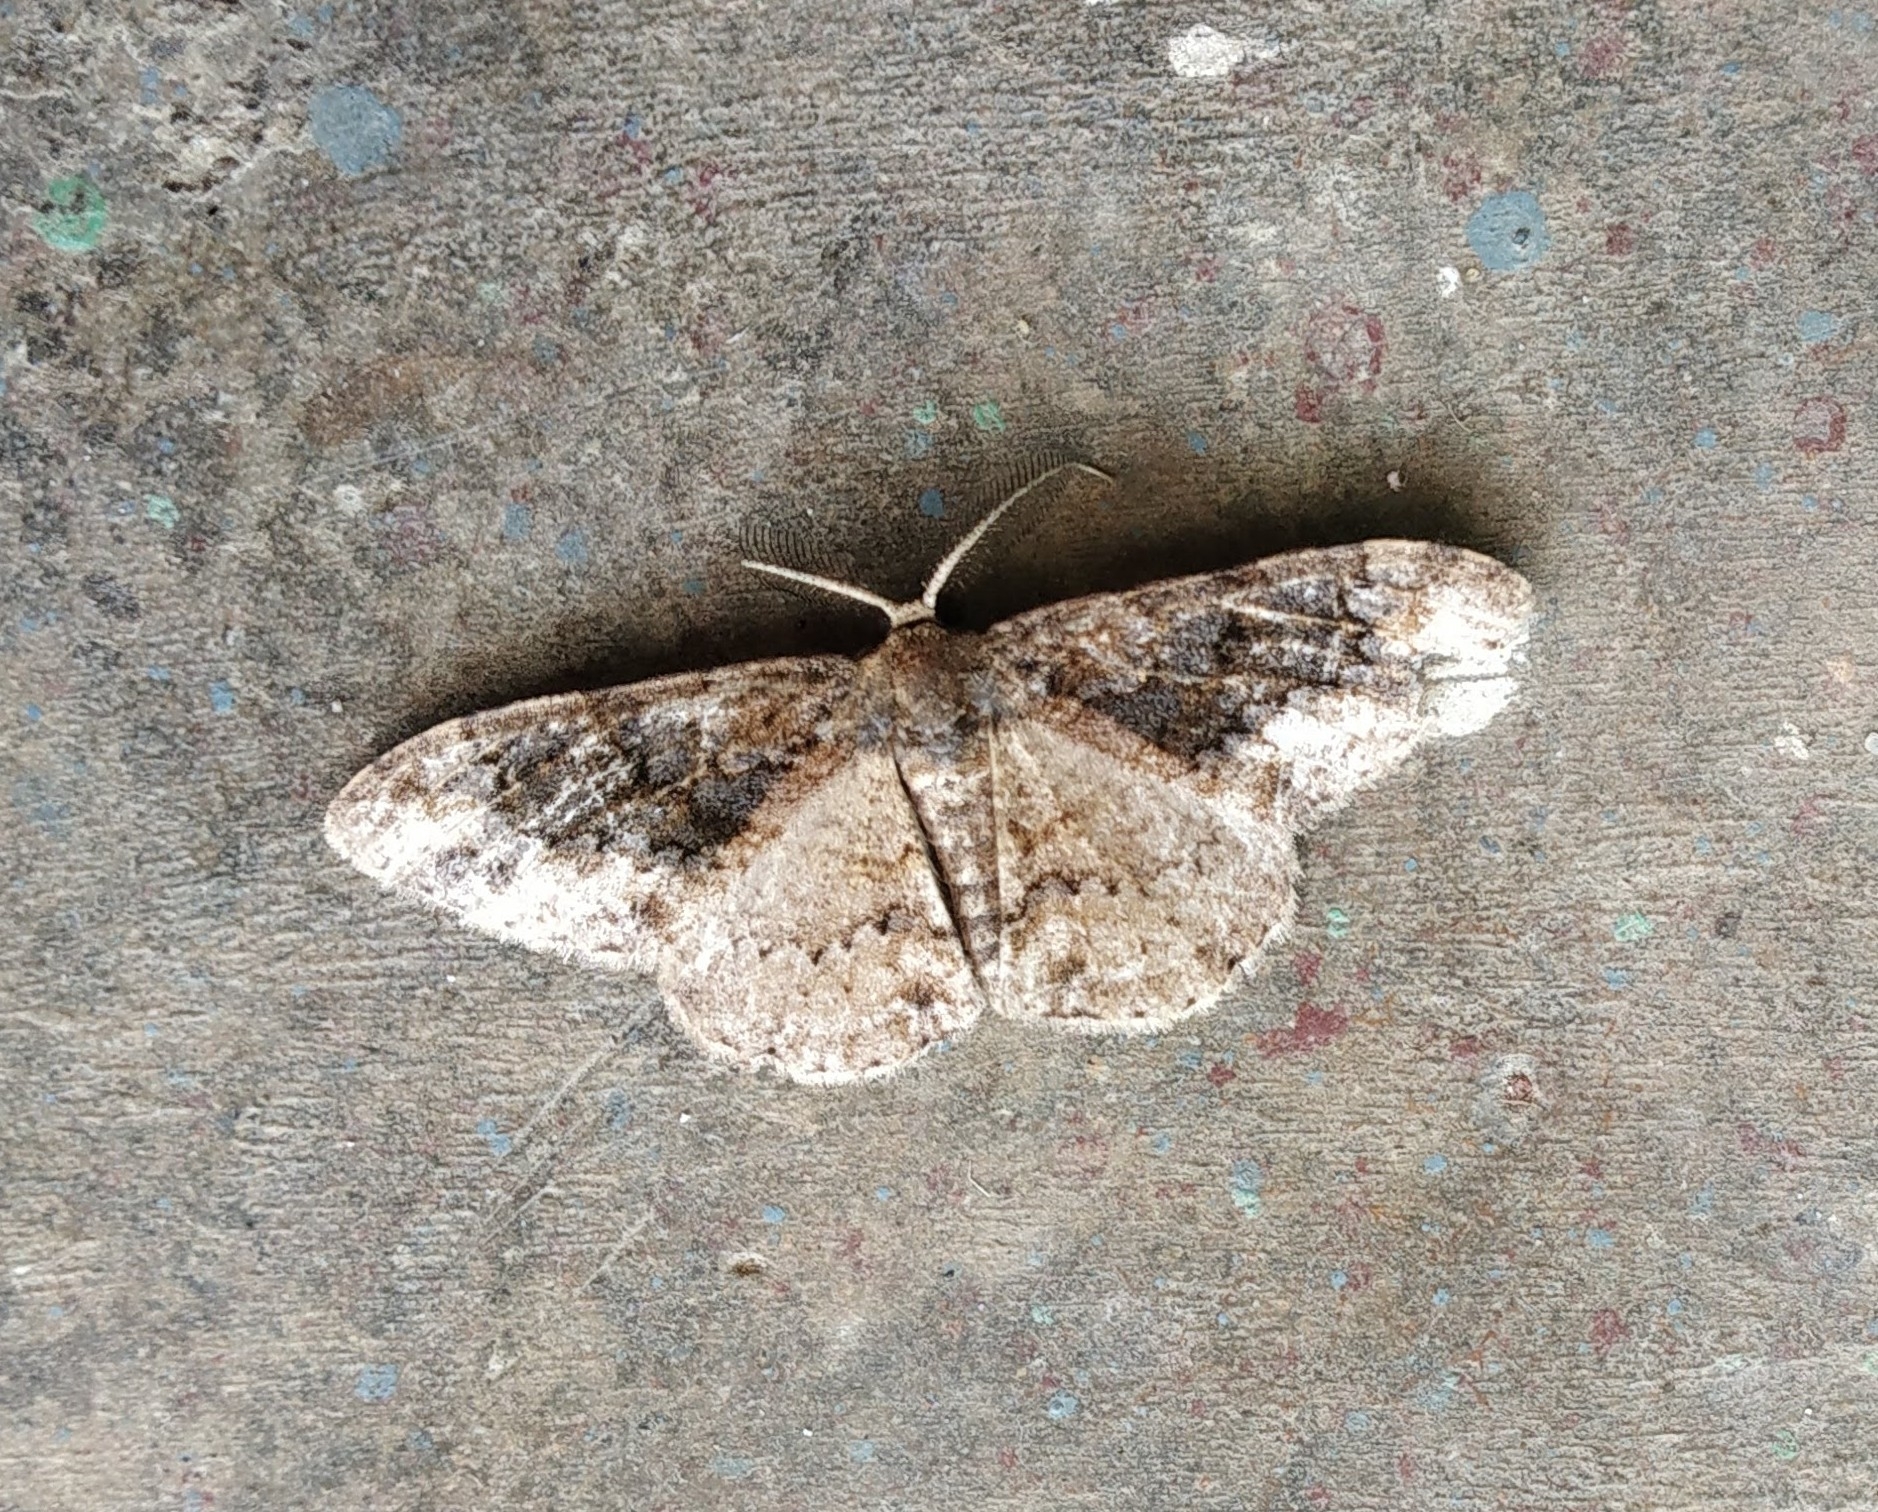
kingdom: Animalia
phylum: Arthropoda
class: Insecta
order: Lepidoptera
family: Geometridae
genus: Parapholodes
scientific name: Parapholodes
